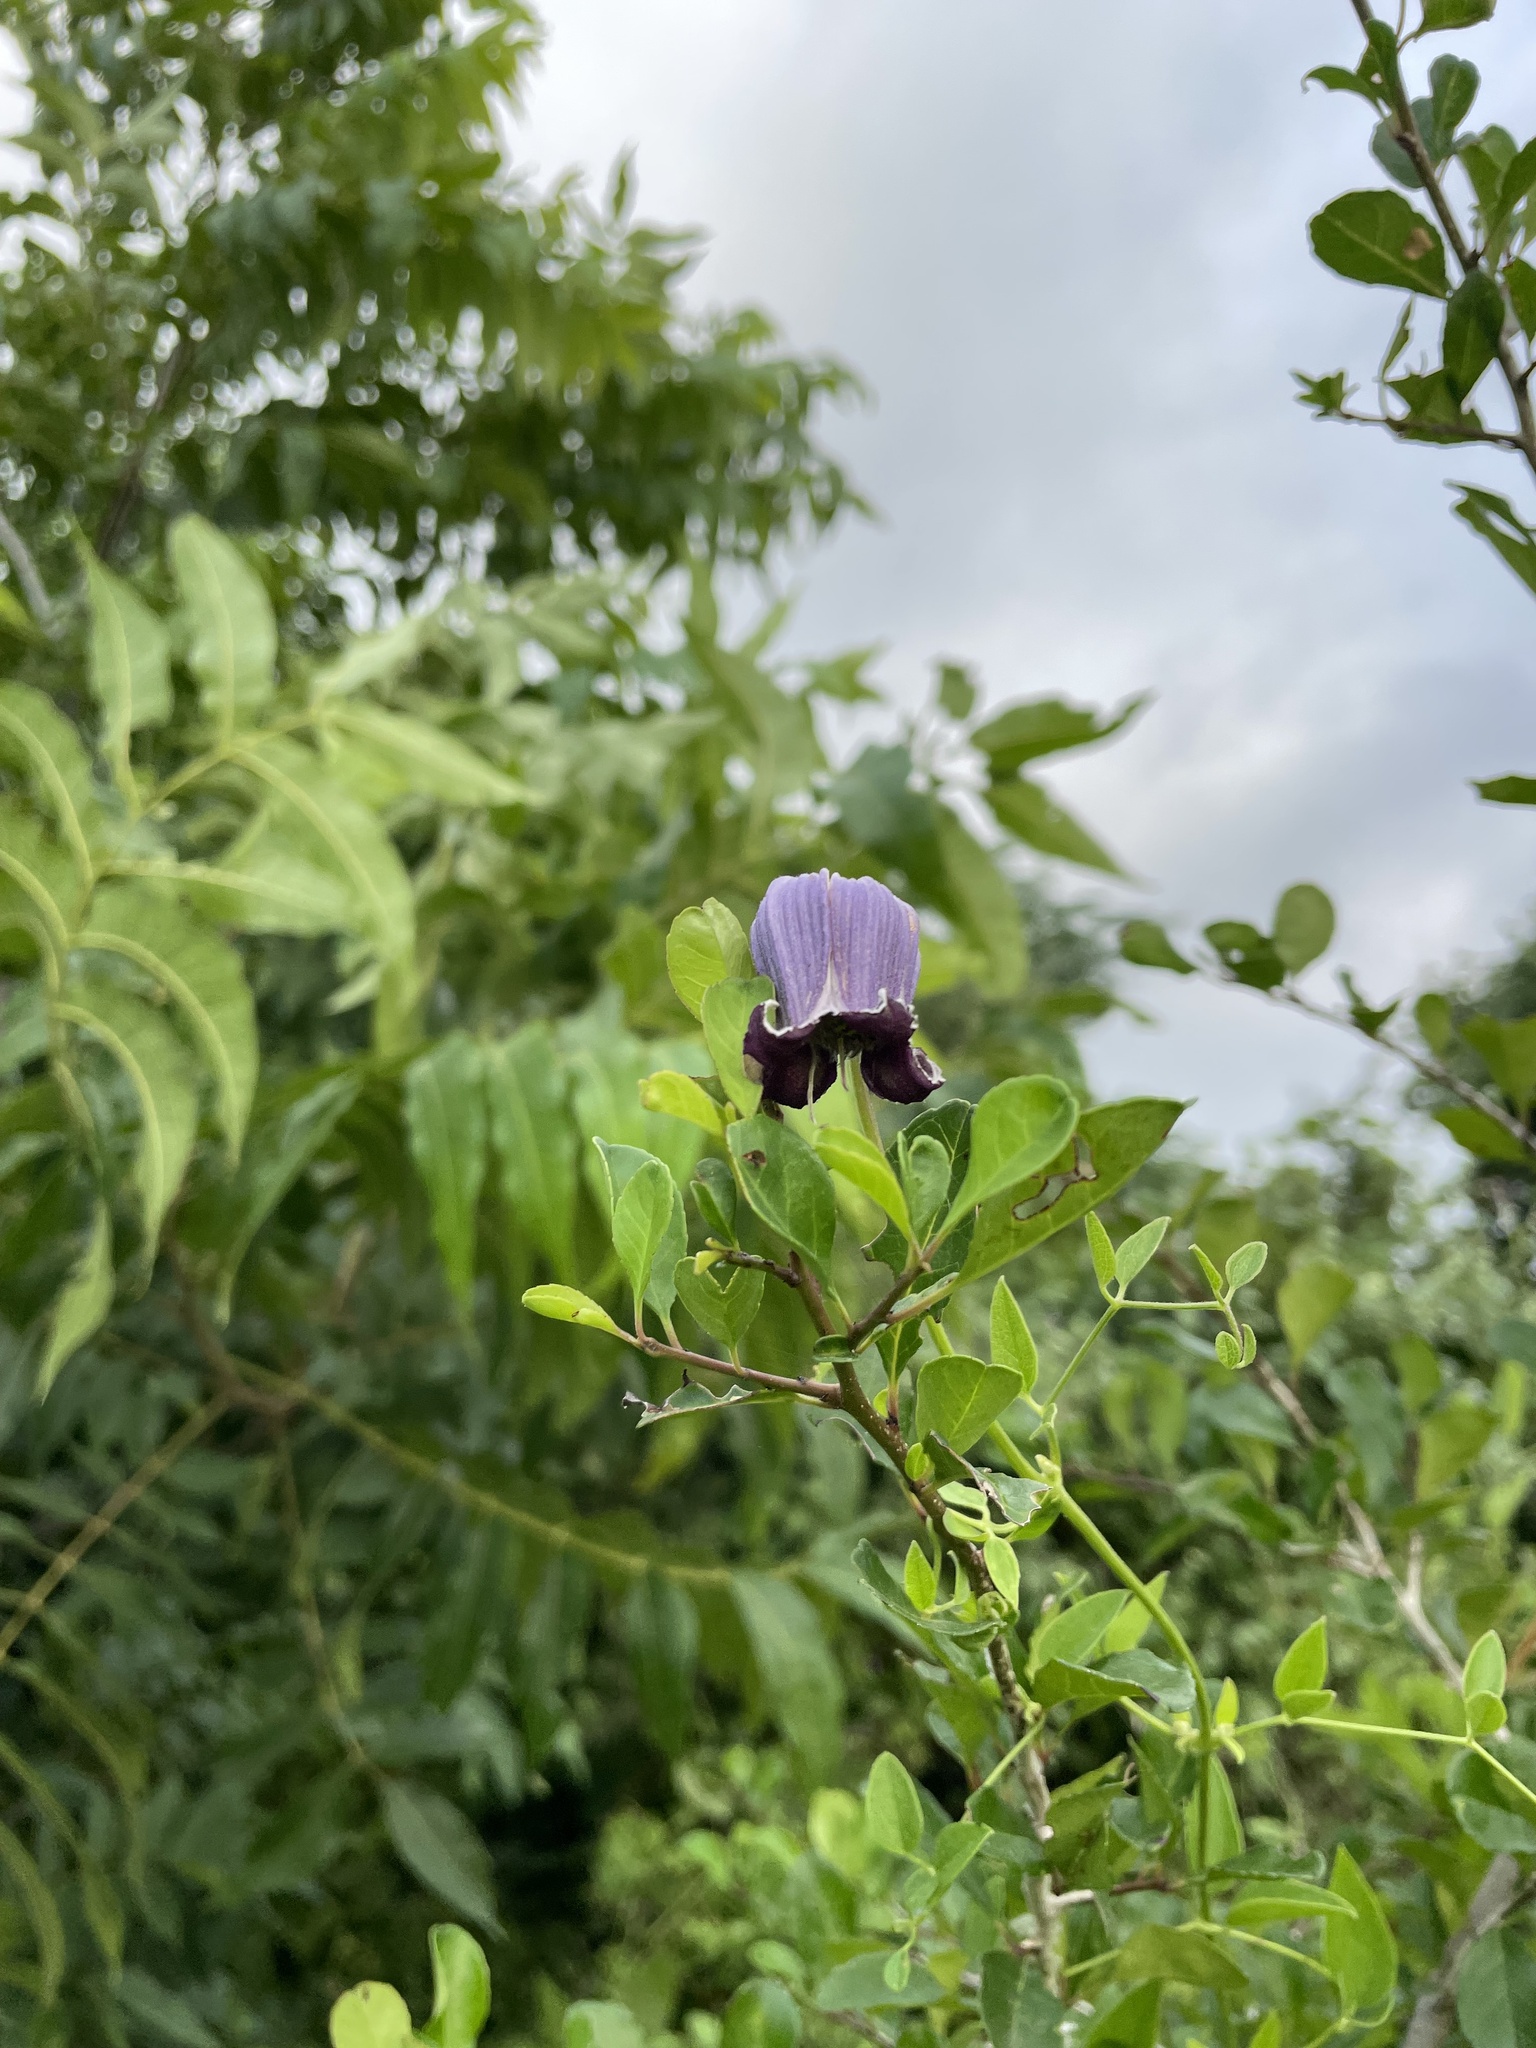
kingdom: Plantae
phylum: Tracheophyta
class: Magnoliopsida
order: Ranunculales
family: Ranunculaceae
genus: Clematis
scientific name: Clematis pitcheri
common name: Bellflower clematis
